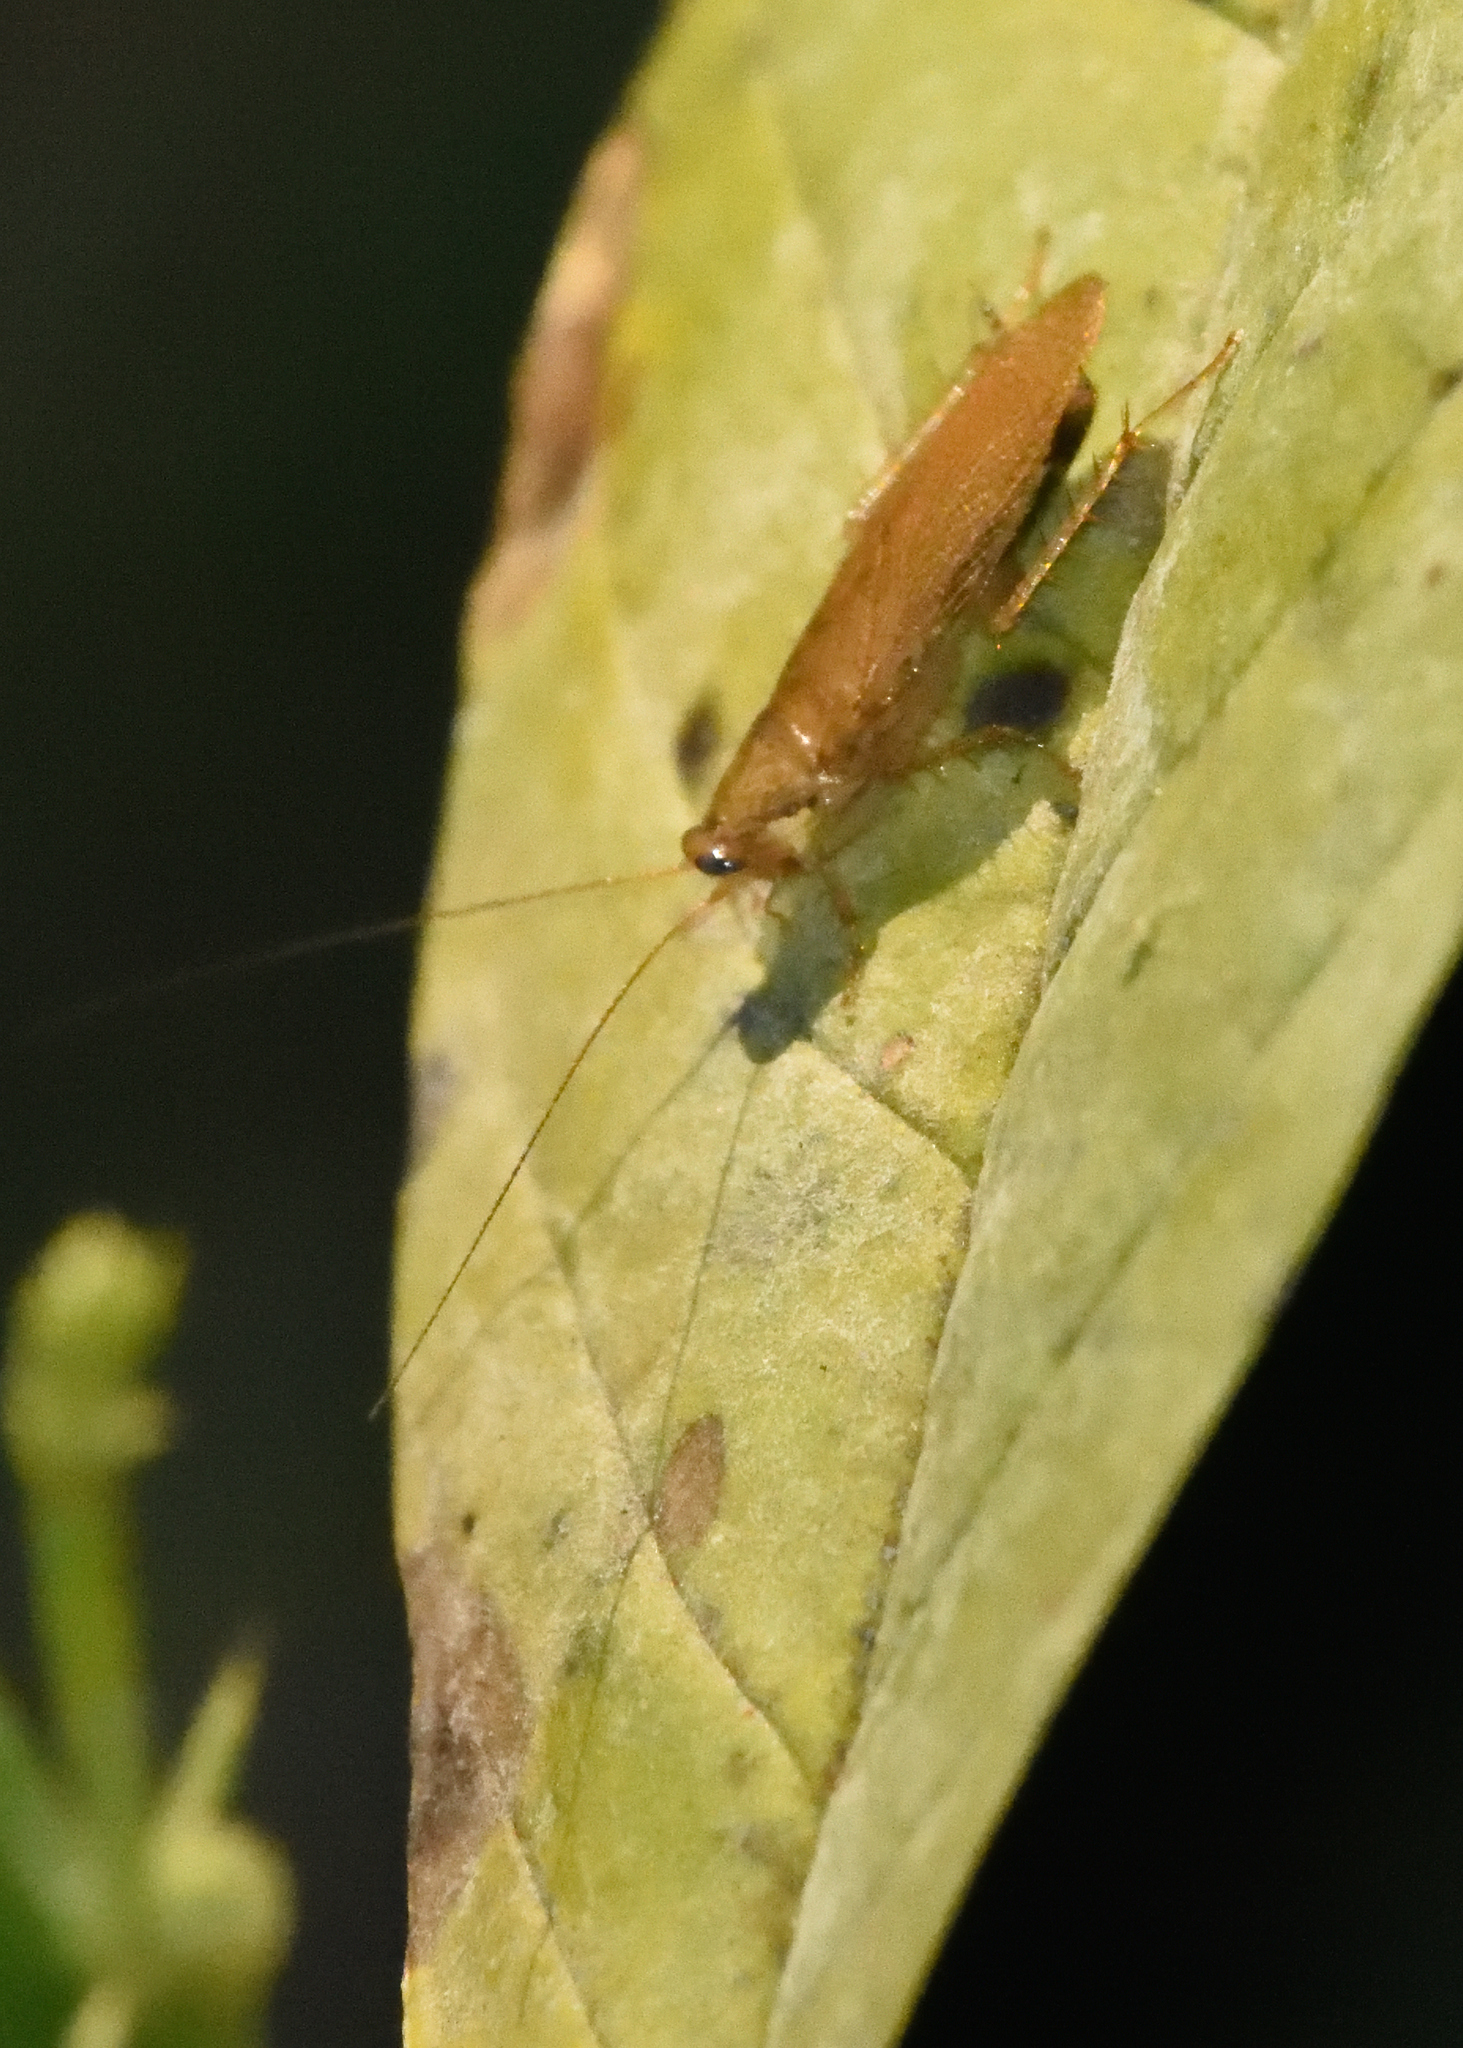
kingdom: Animalia
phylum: Arthropoda
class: Insecta
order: Blattodea
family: Ectobiidae
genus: Latiblattella
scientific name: Latiblattella rehni
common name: Rehn's cockroach
